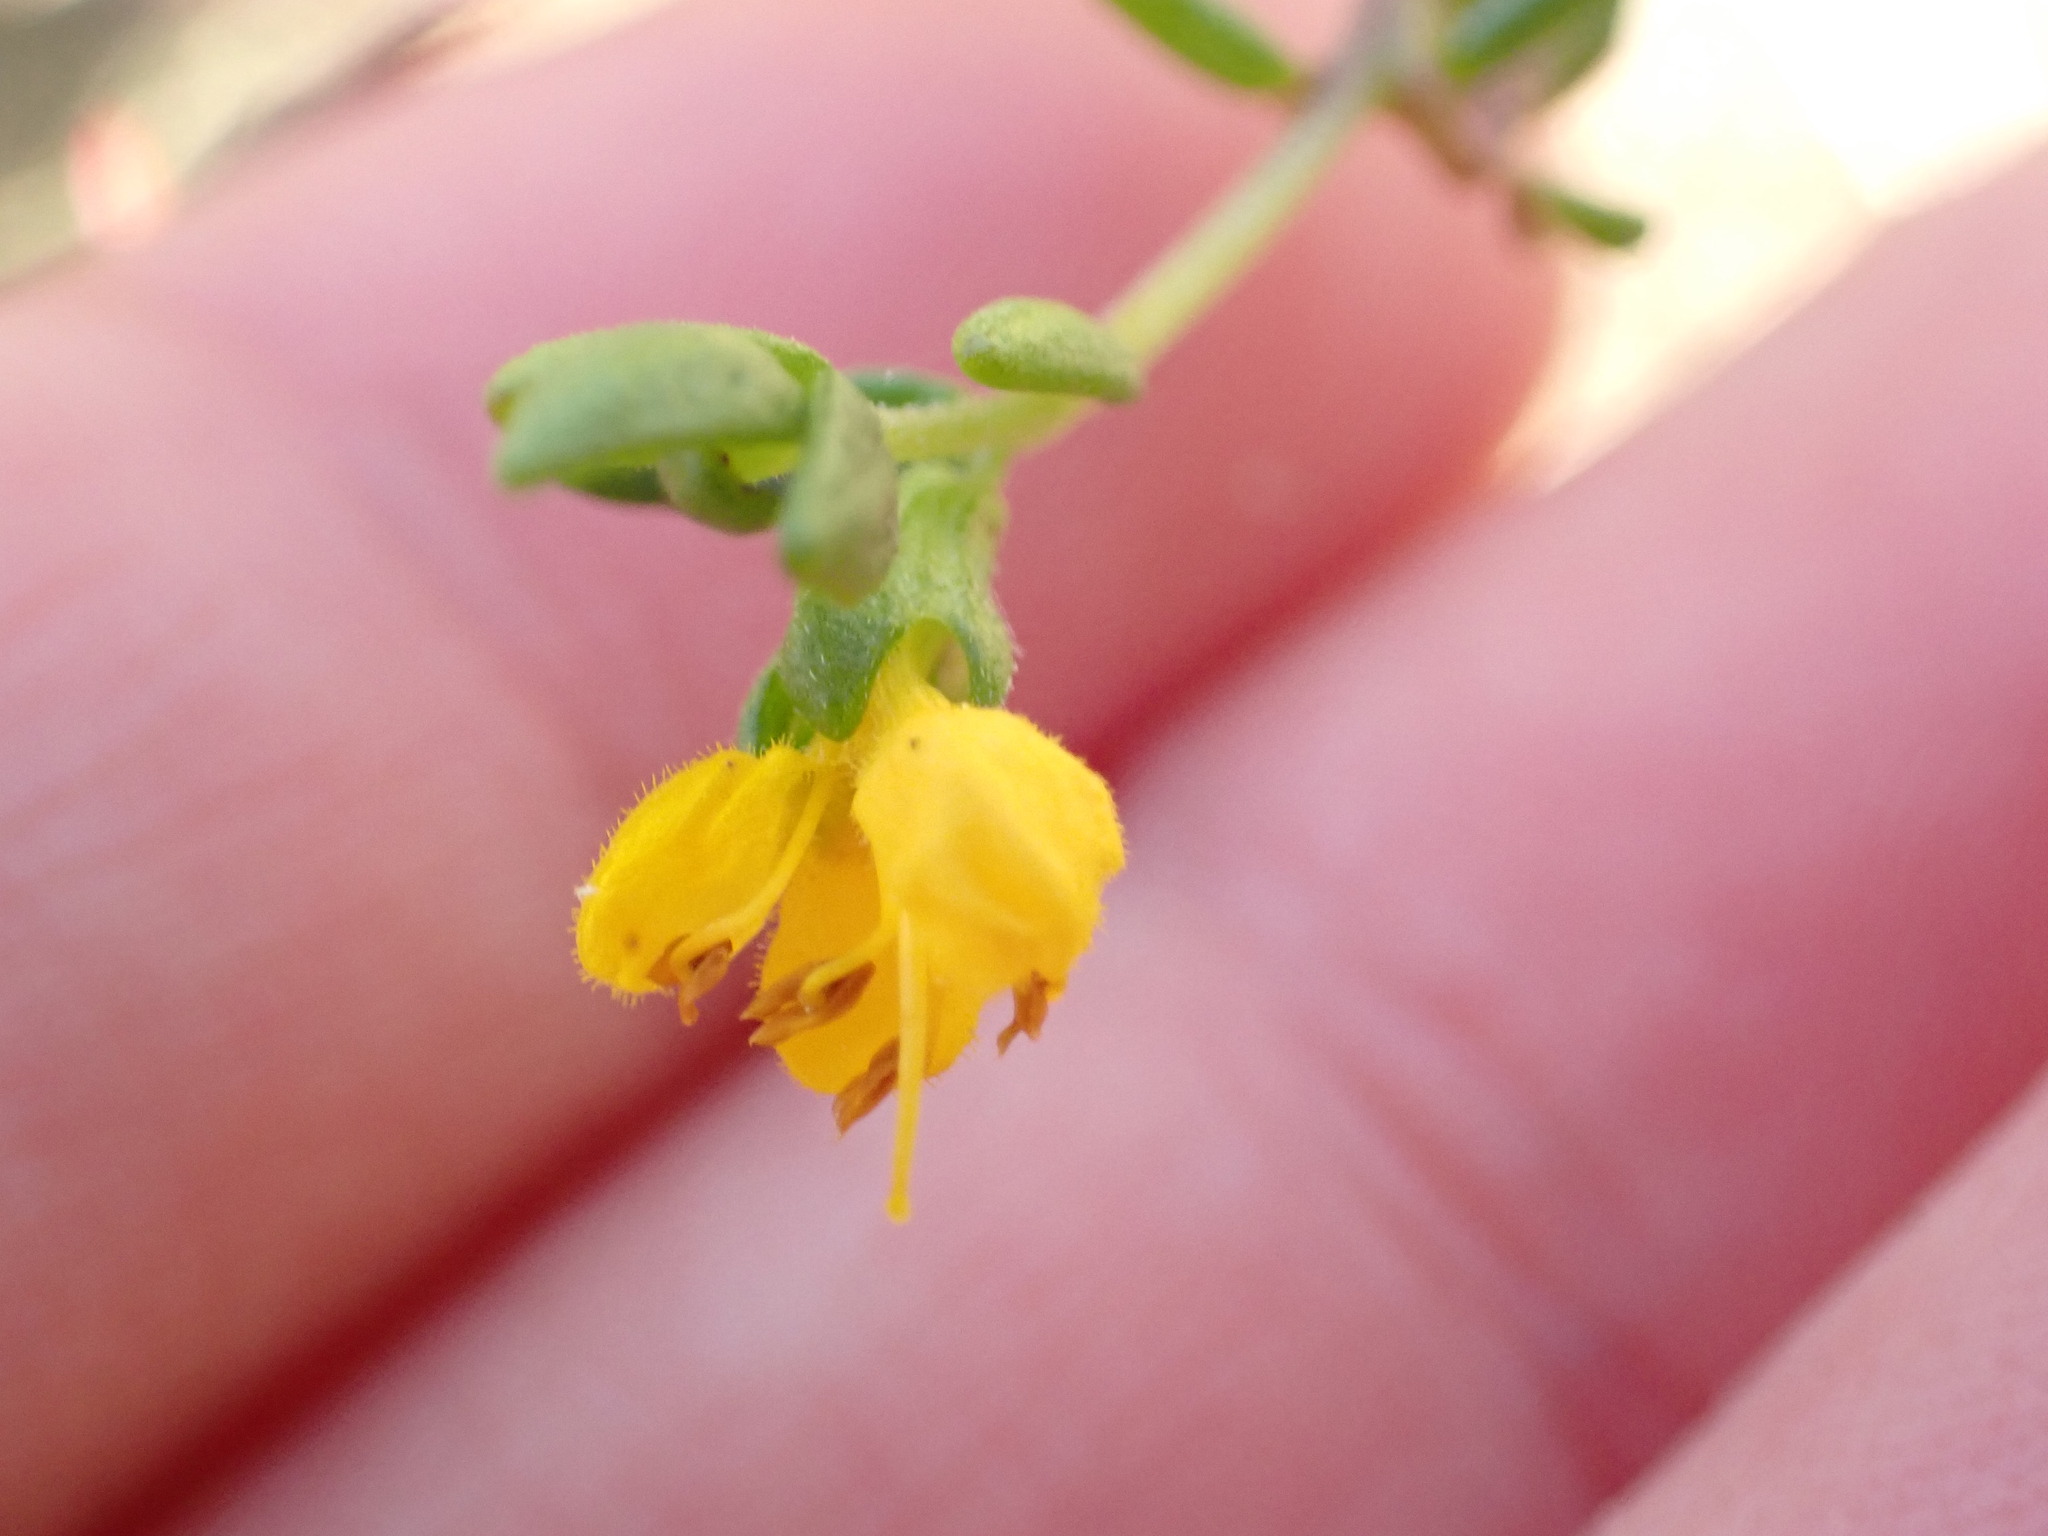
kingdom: Plantae
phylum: Tracheophyta
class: Magnoliopsida
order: Lamiales
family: Orobanchaceae
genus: Odontites
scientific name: Odontites luteus
